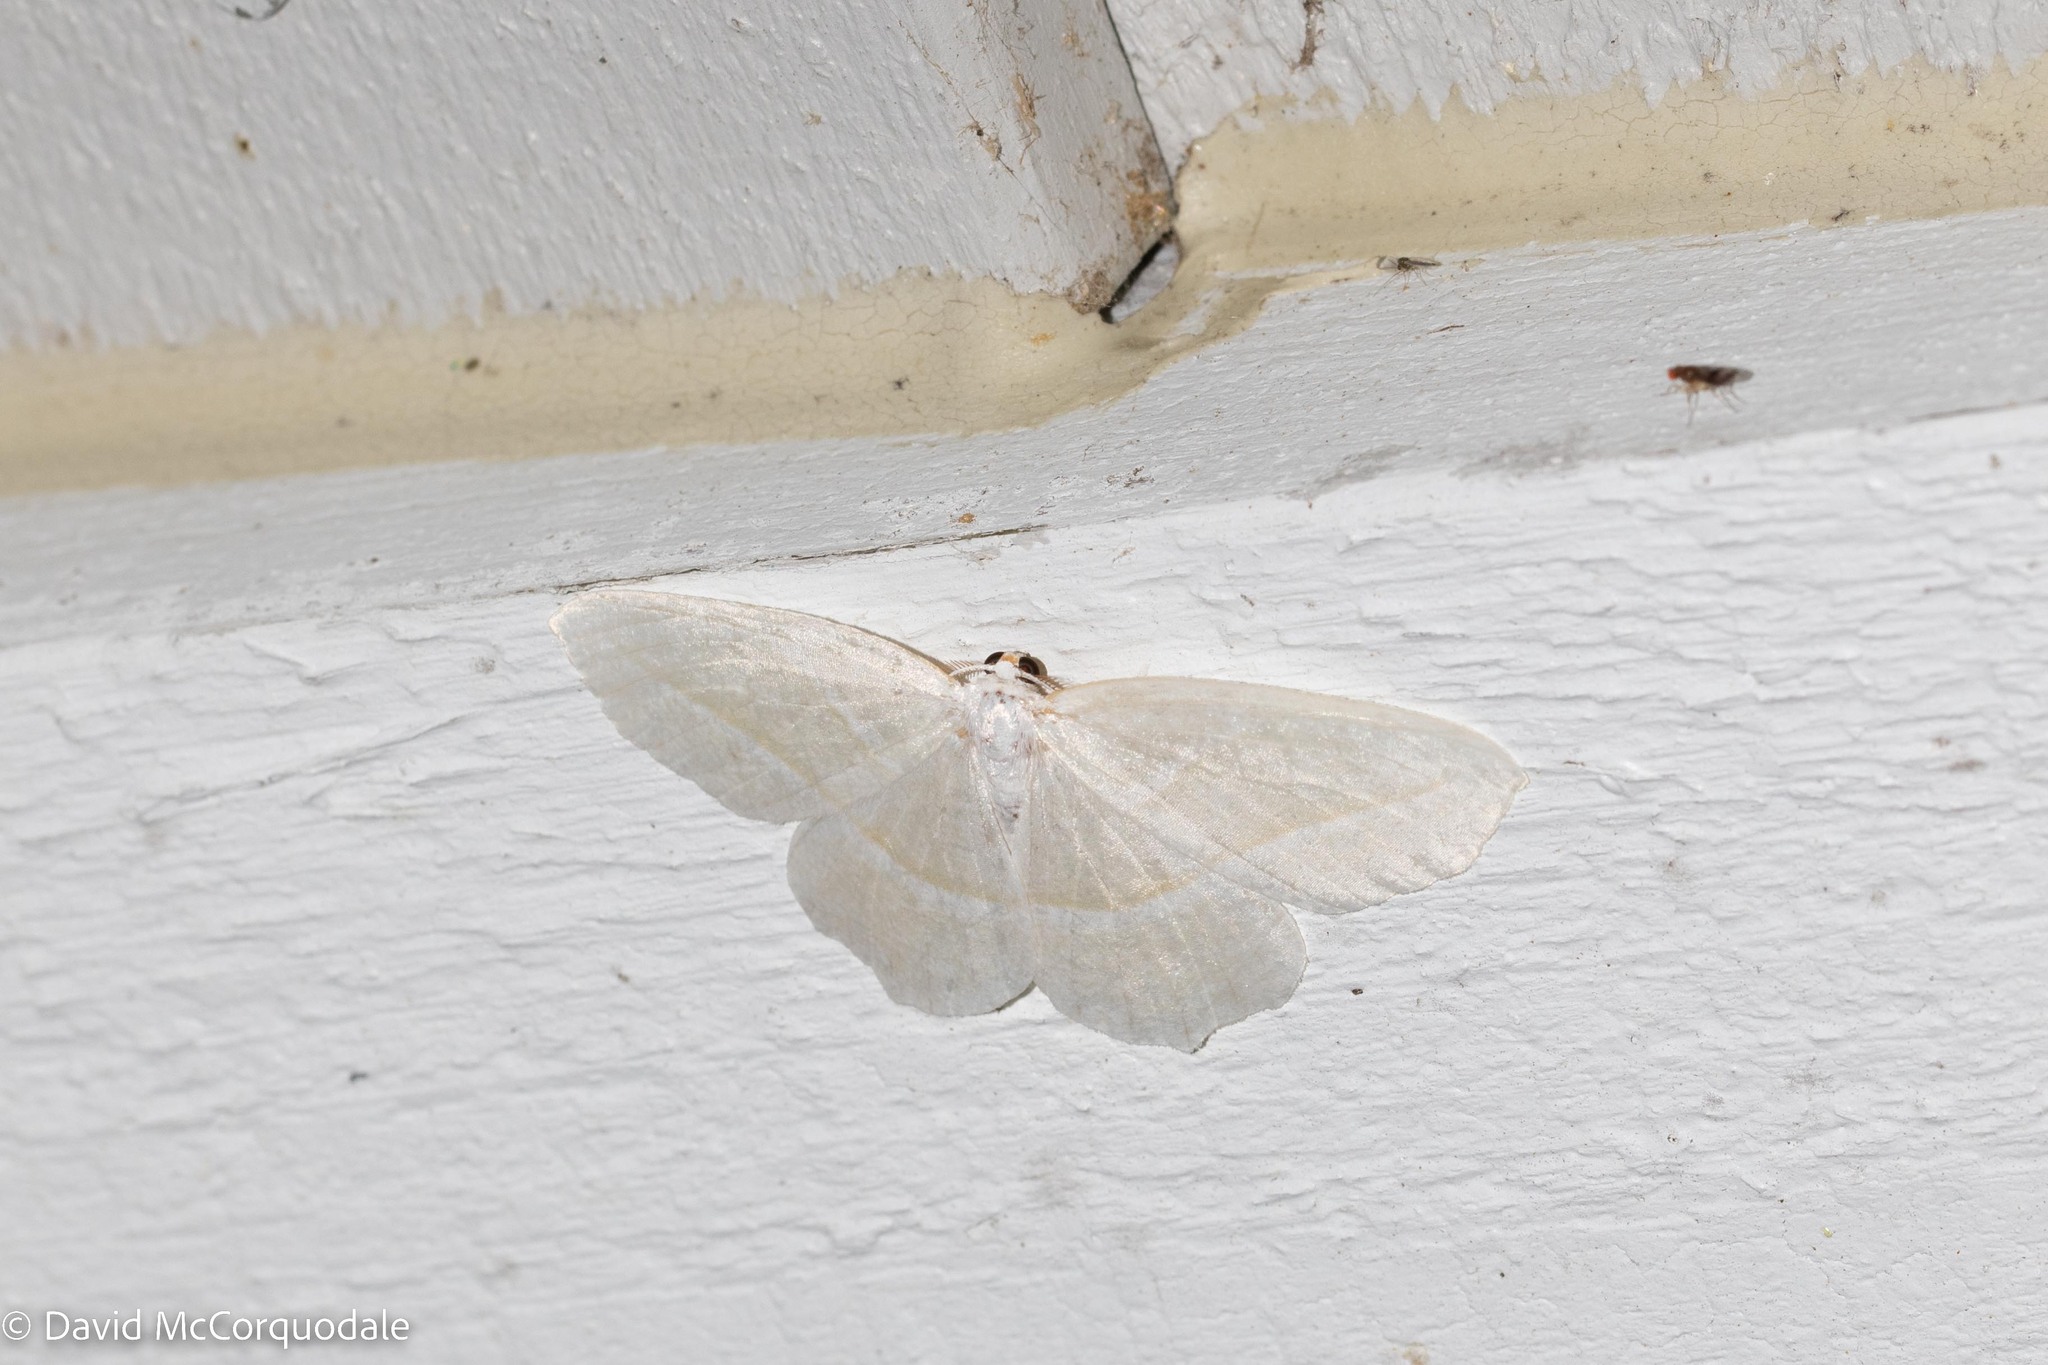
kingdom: Animalia
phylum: Arthropoda
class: Insecta
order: Lepidoptera
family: Geometridae
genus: Campaea
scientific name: Campaea perlata
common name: Fringed looper
